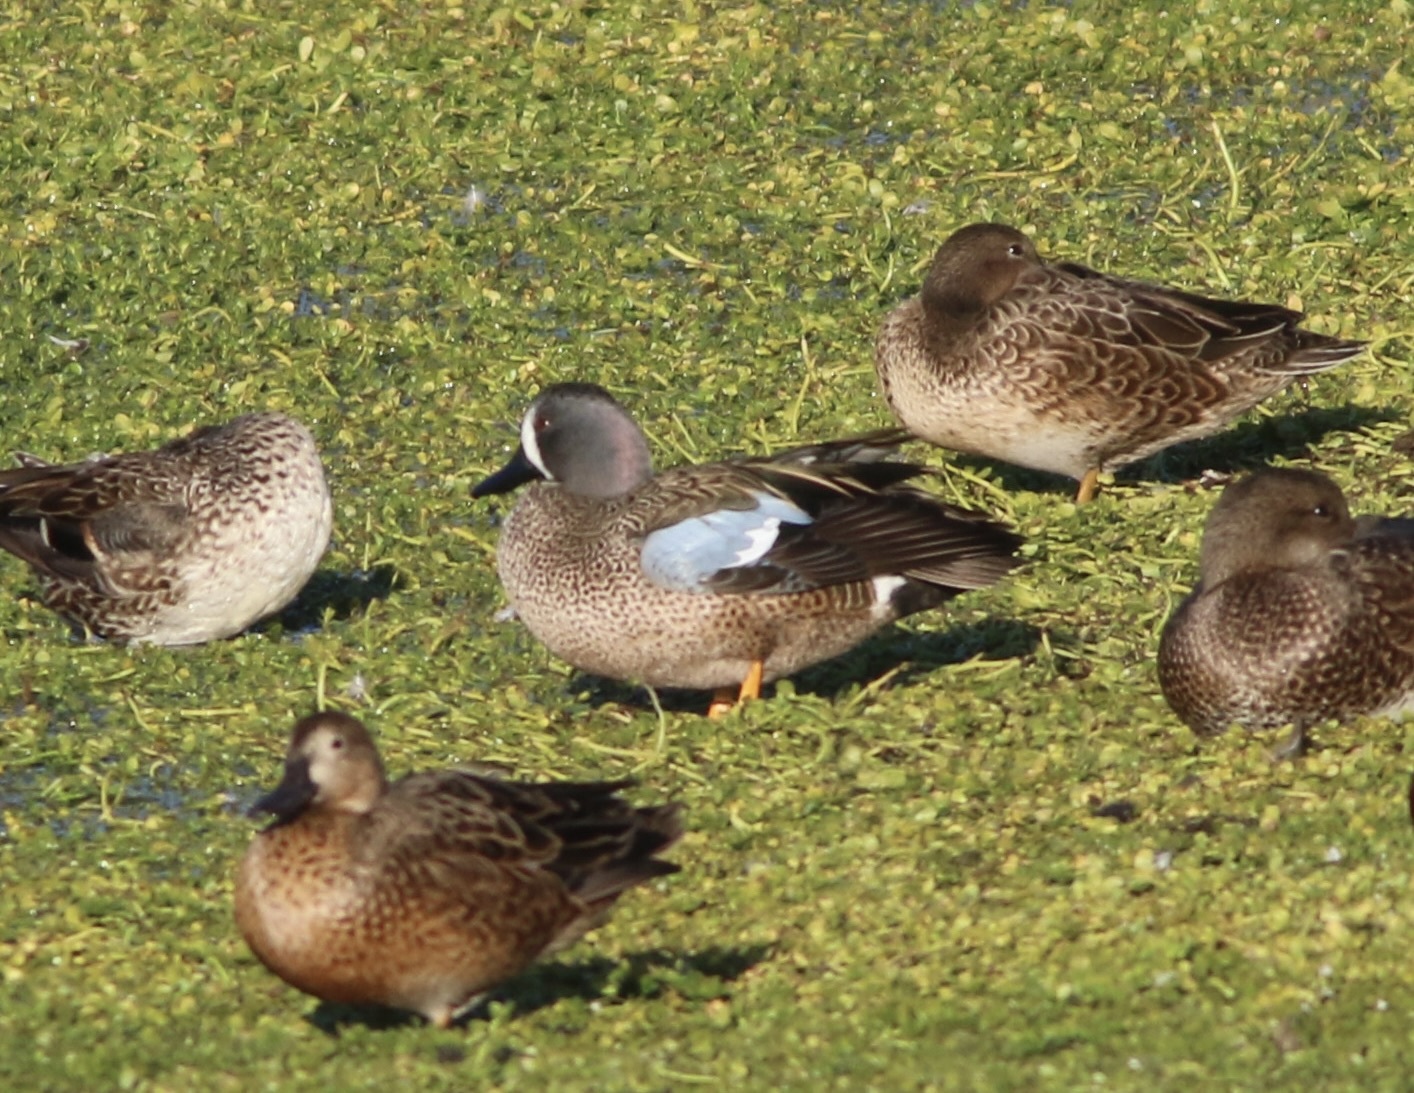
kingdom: Animalia
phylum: Chordata
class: Aves
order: Anseriformes
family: Anatidae
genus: Spatula
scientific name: Spatula discors
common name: Blue-winged teal
